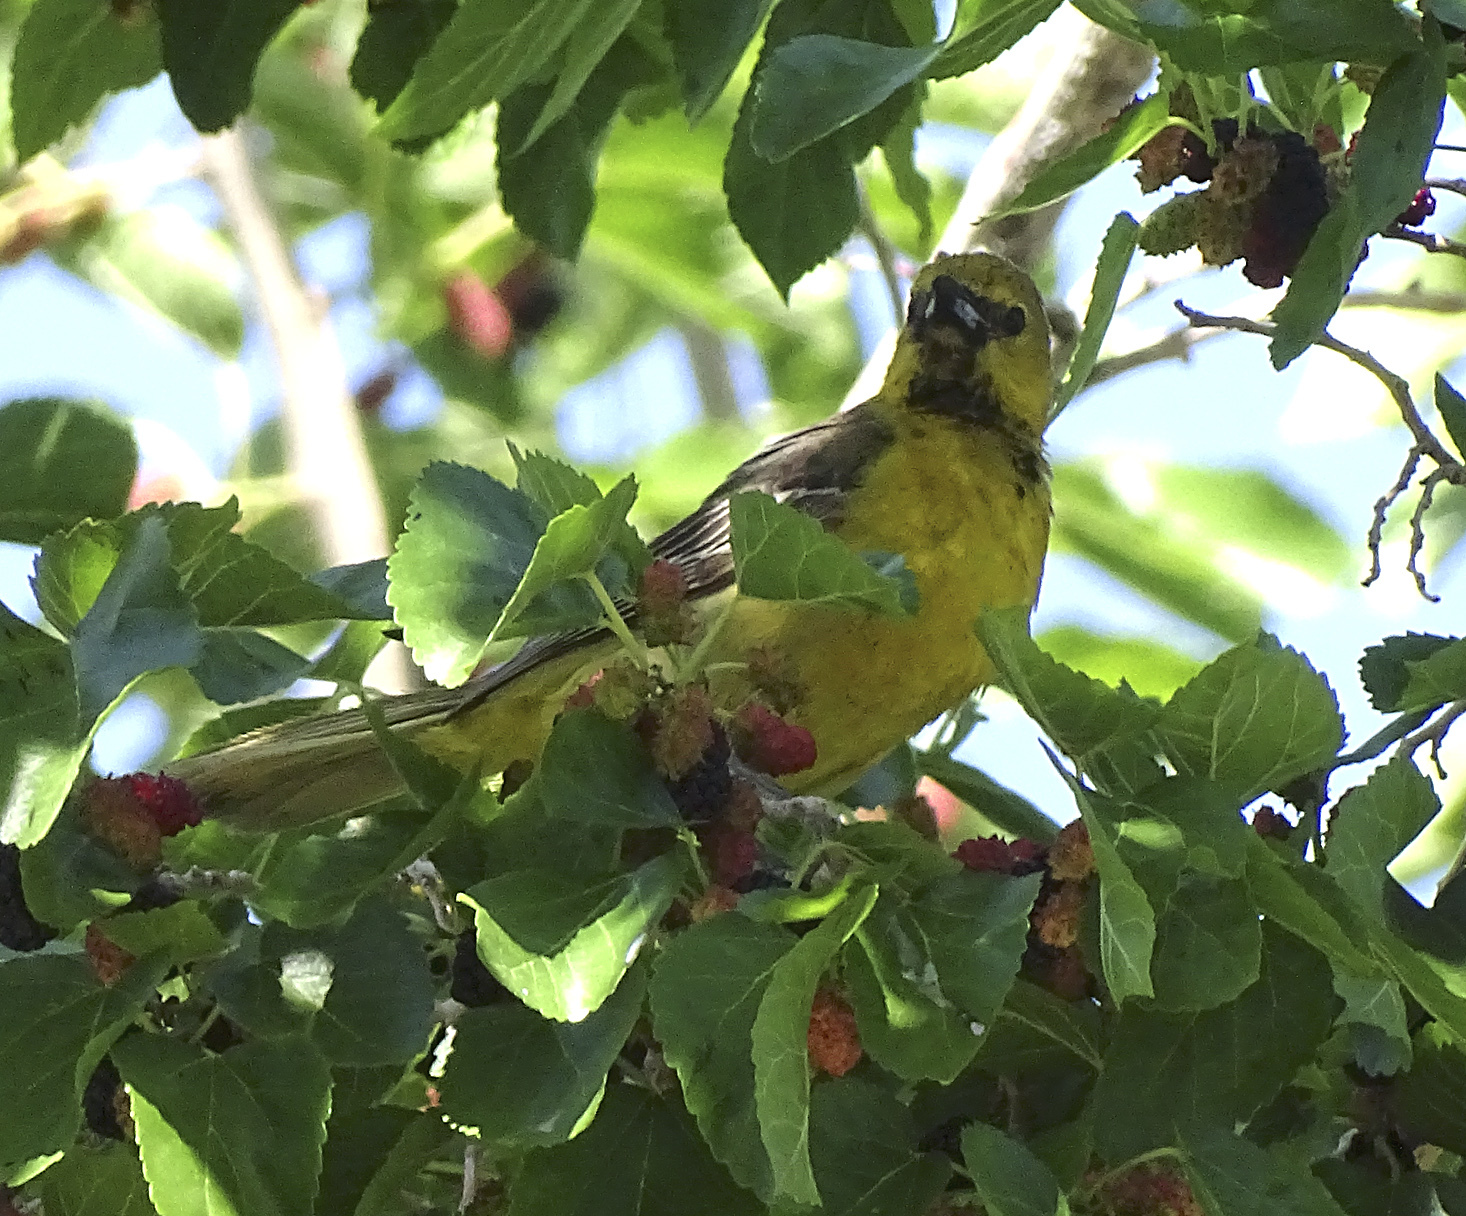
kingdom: Animalia
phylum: Chordata
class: Aves
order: Passeriformes
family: Icteridae
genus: Icterus
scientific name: Icterus cucullatus
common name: Hooded oriole
